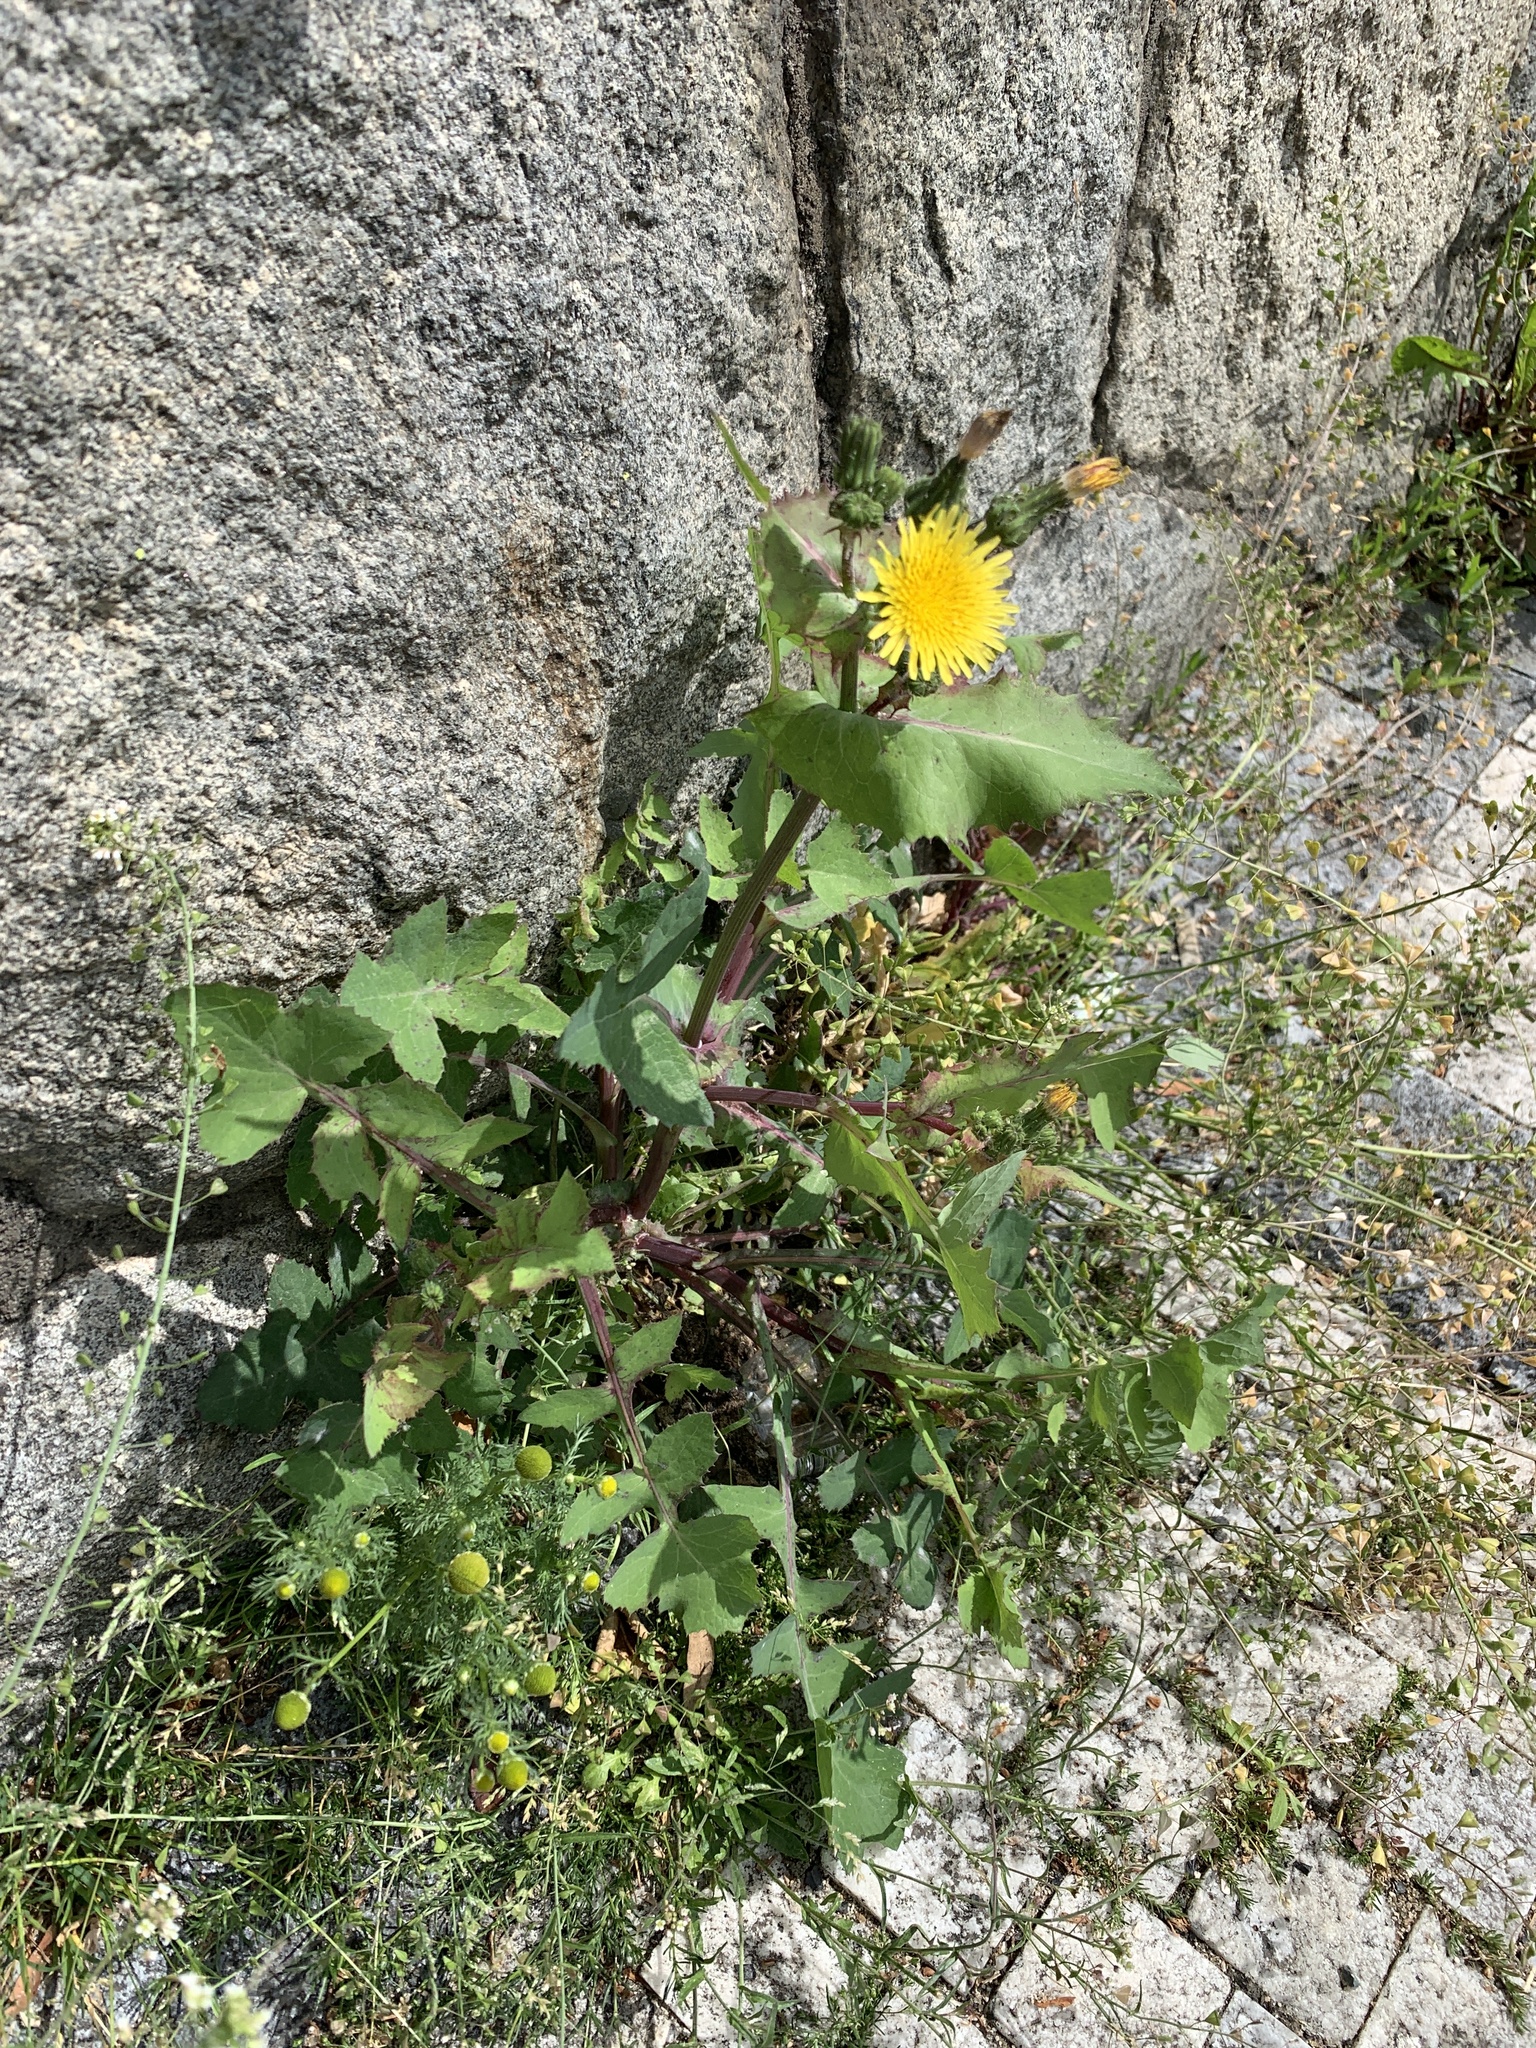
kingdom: Plantae
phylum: Tracheophyta
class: Magnoliopsida
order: Asterales
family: Asteraceae
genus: Sonchus
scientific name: Sonchus oleraceus
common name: Common sowthistle
